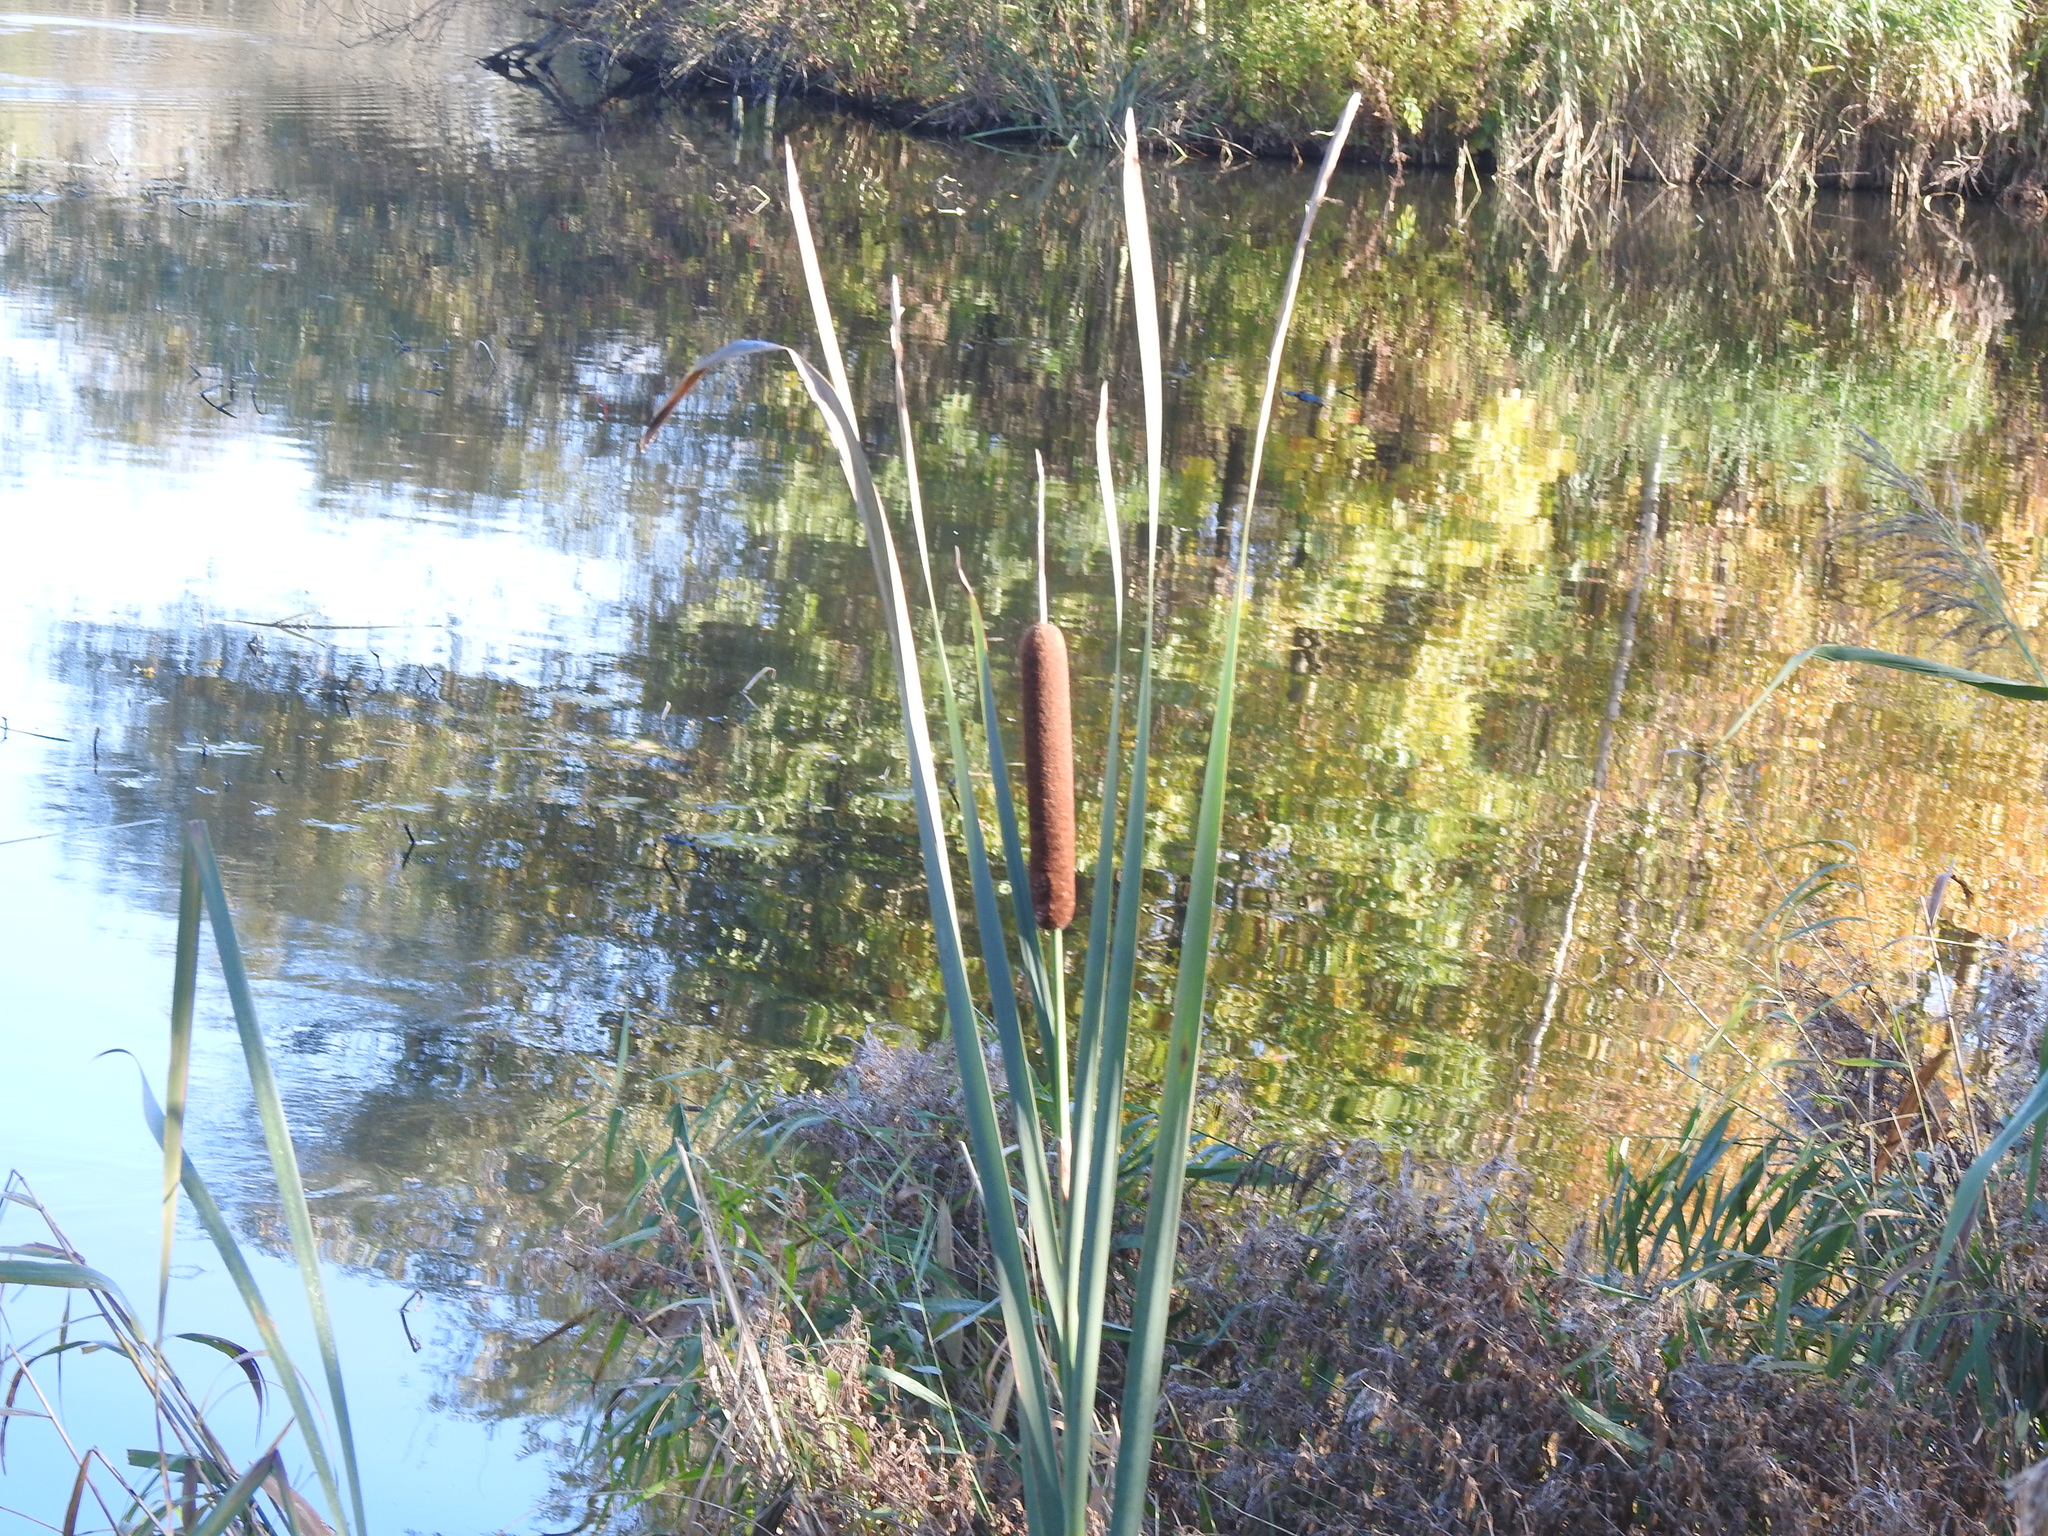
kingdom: Plantae
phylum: Tracheophyta
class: Liliopsida
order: Poales
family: Typhaceae
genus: Typha
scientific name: Typha latifolia
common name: Broadleaf cattail
